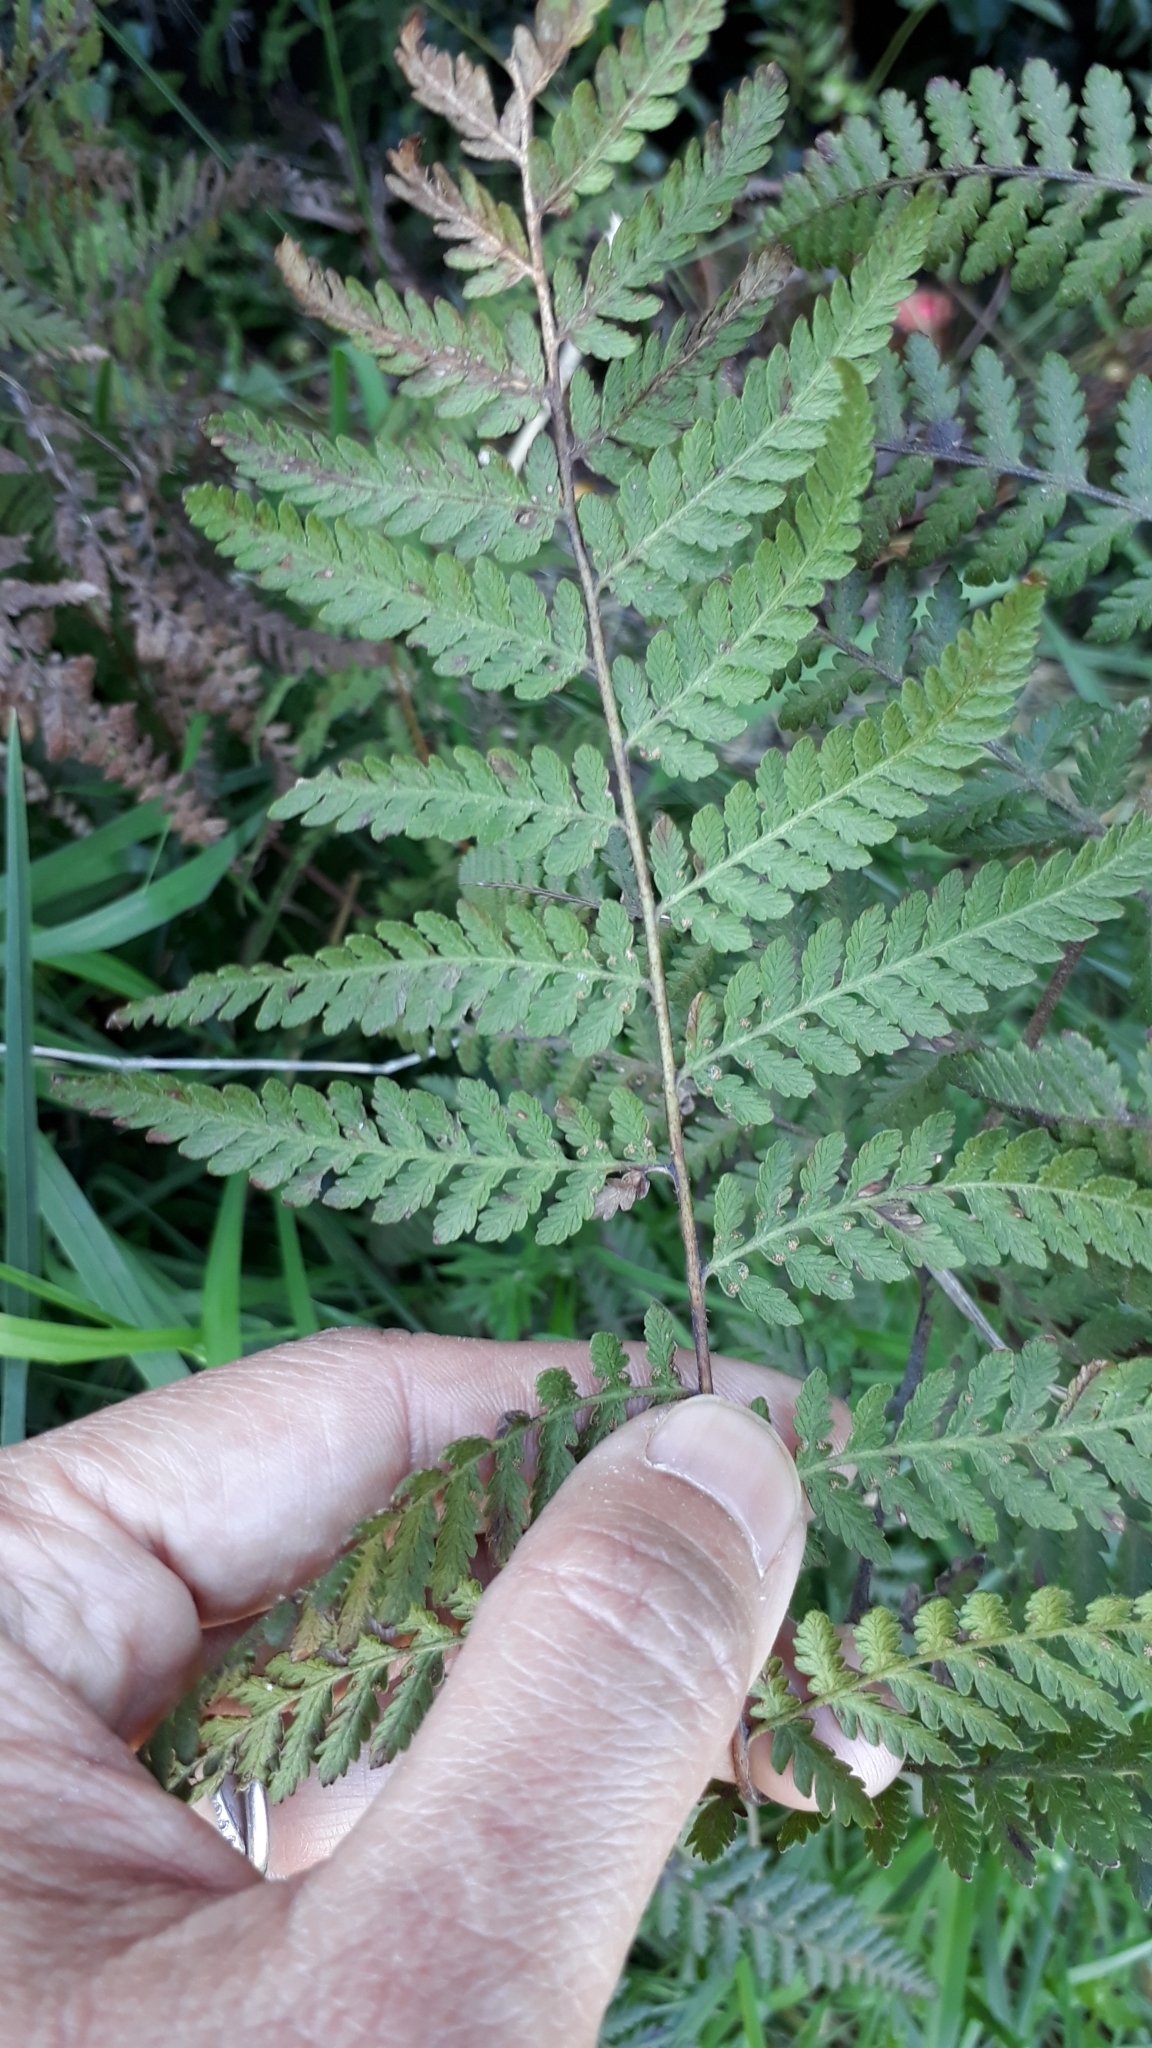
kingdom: Plantae
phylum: Tracheophyta
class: Polypodiopsida
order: Polypodiales
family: Dennstaedtiaceae
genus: Hypolepis
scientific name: Hypolepis ambigua
